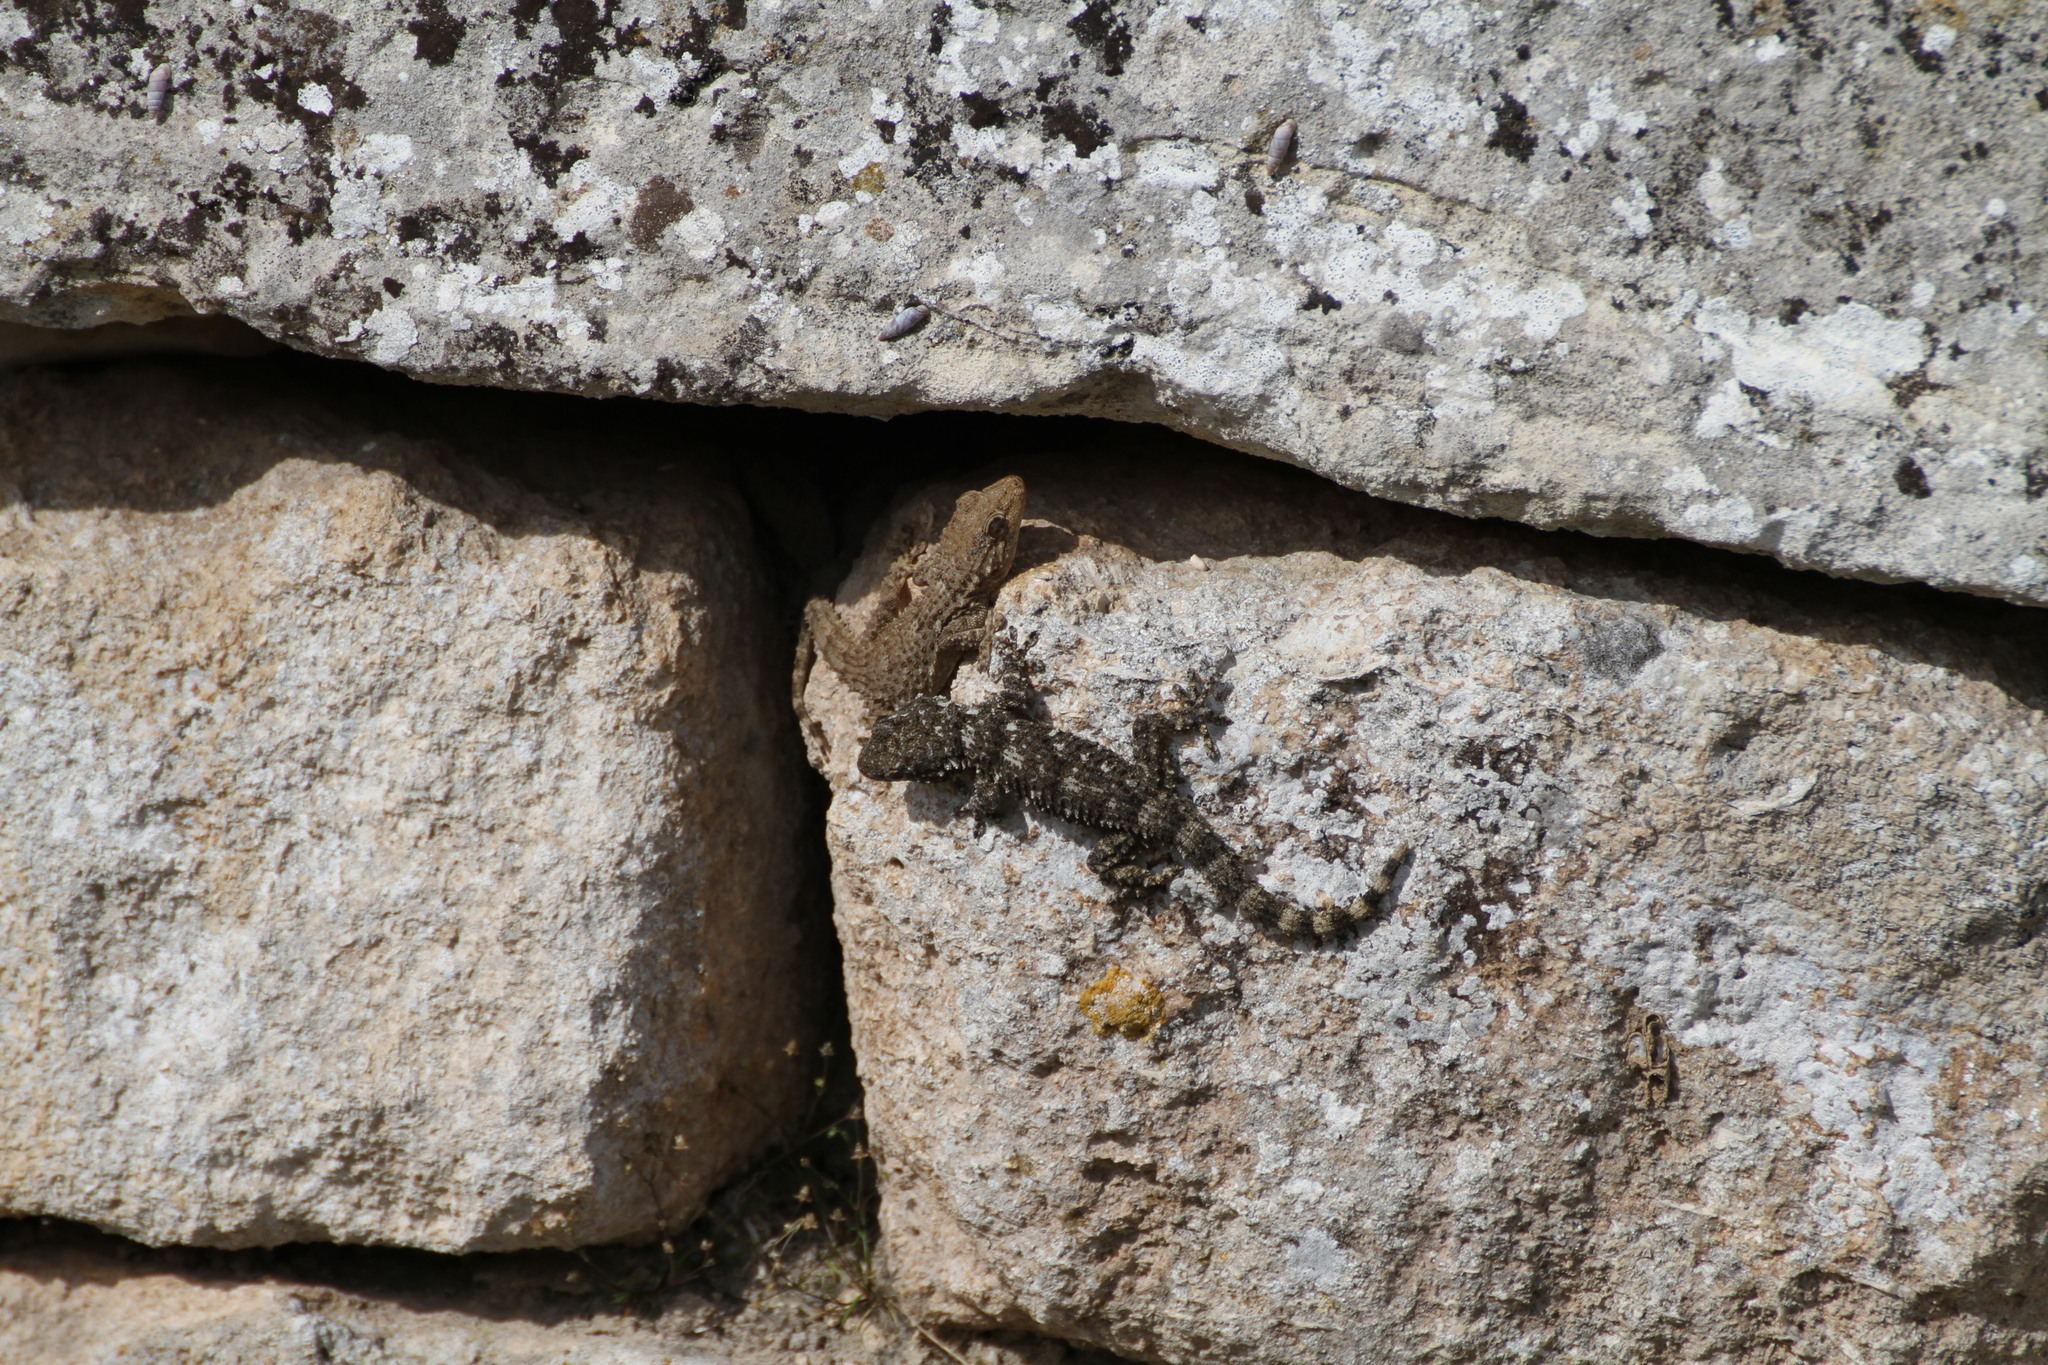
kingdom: Animalia
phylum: Chordata
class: Squamata
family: Phyllodactylidae
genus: Tarentola
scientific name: Tarentola mauritanica
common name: Moorish gecko
